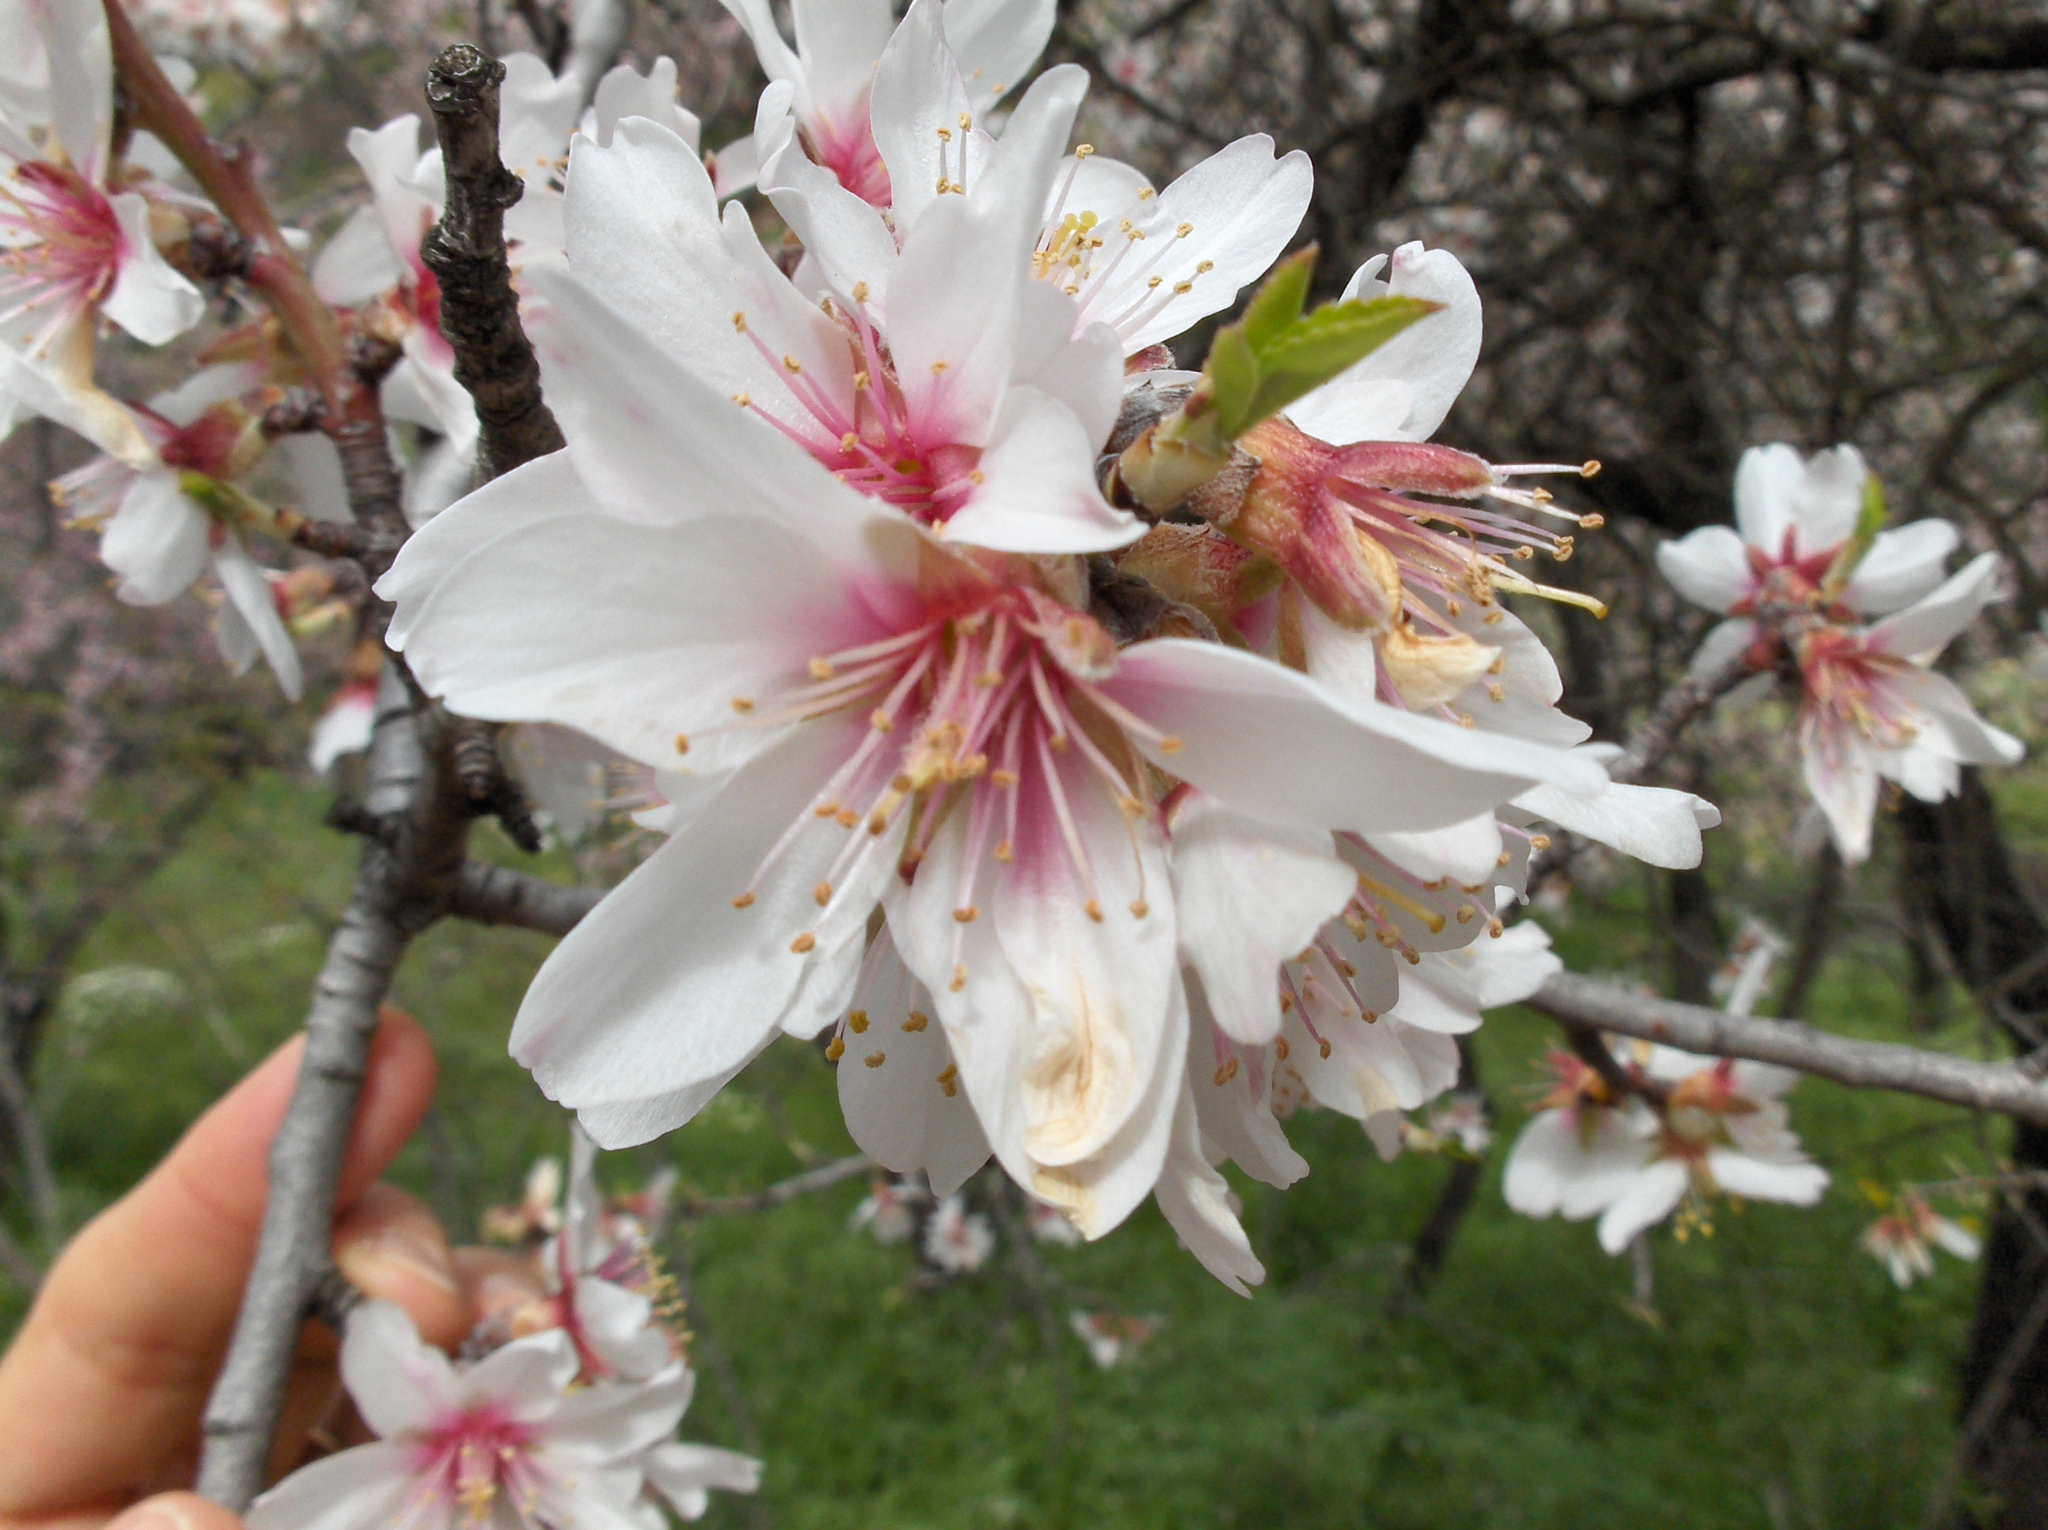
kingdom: Plantae
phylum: Tracheophyta
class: Magnoliopsida
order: Rosales
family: Rosaceae
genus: Prunus
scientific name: Prunus amygdalus
